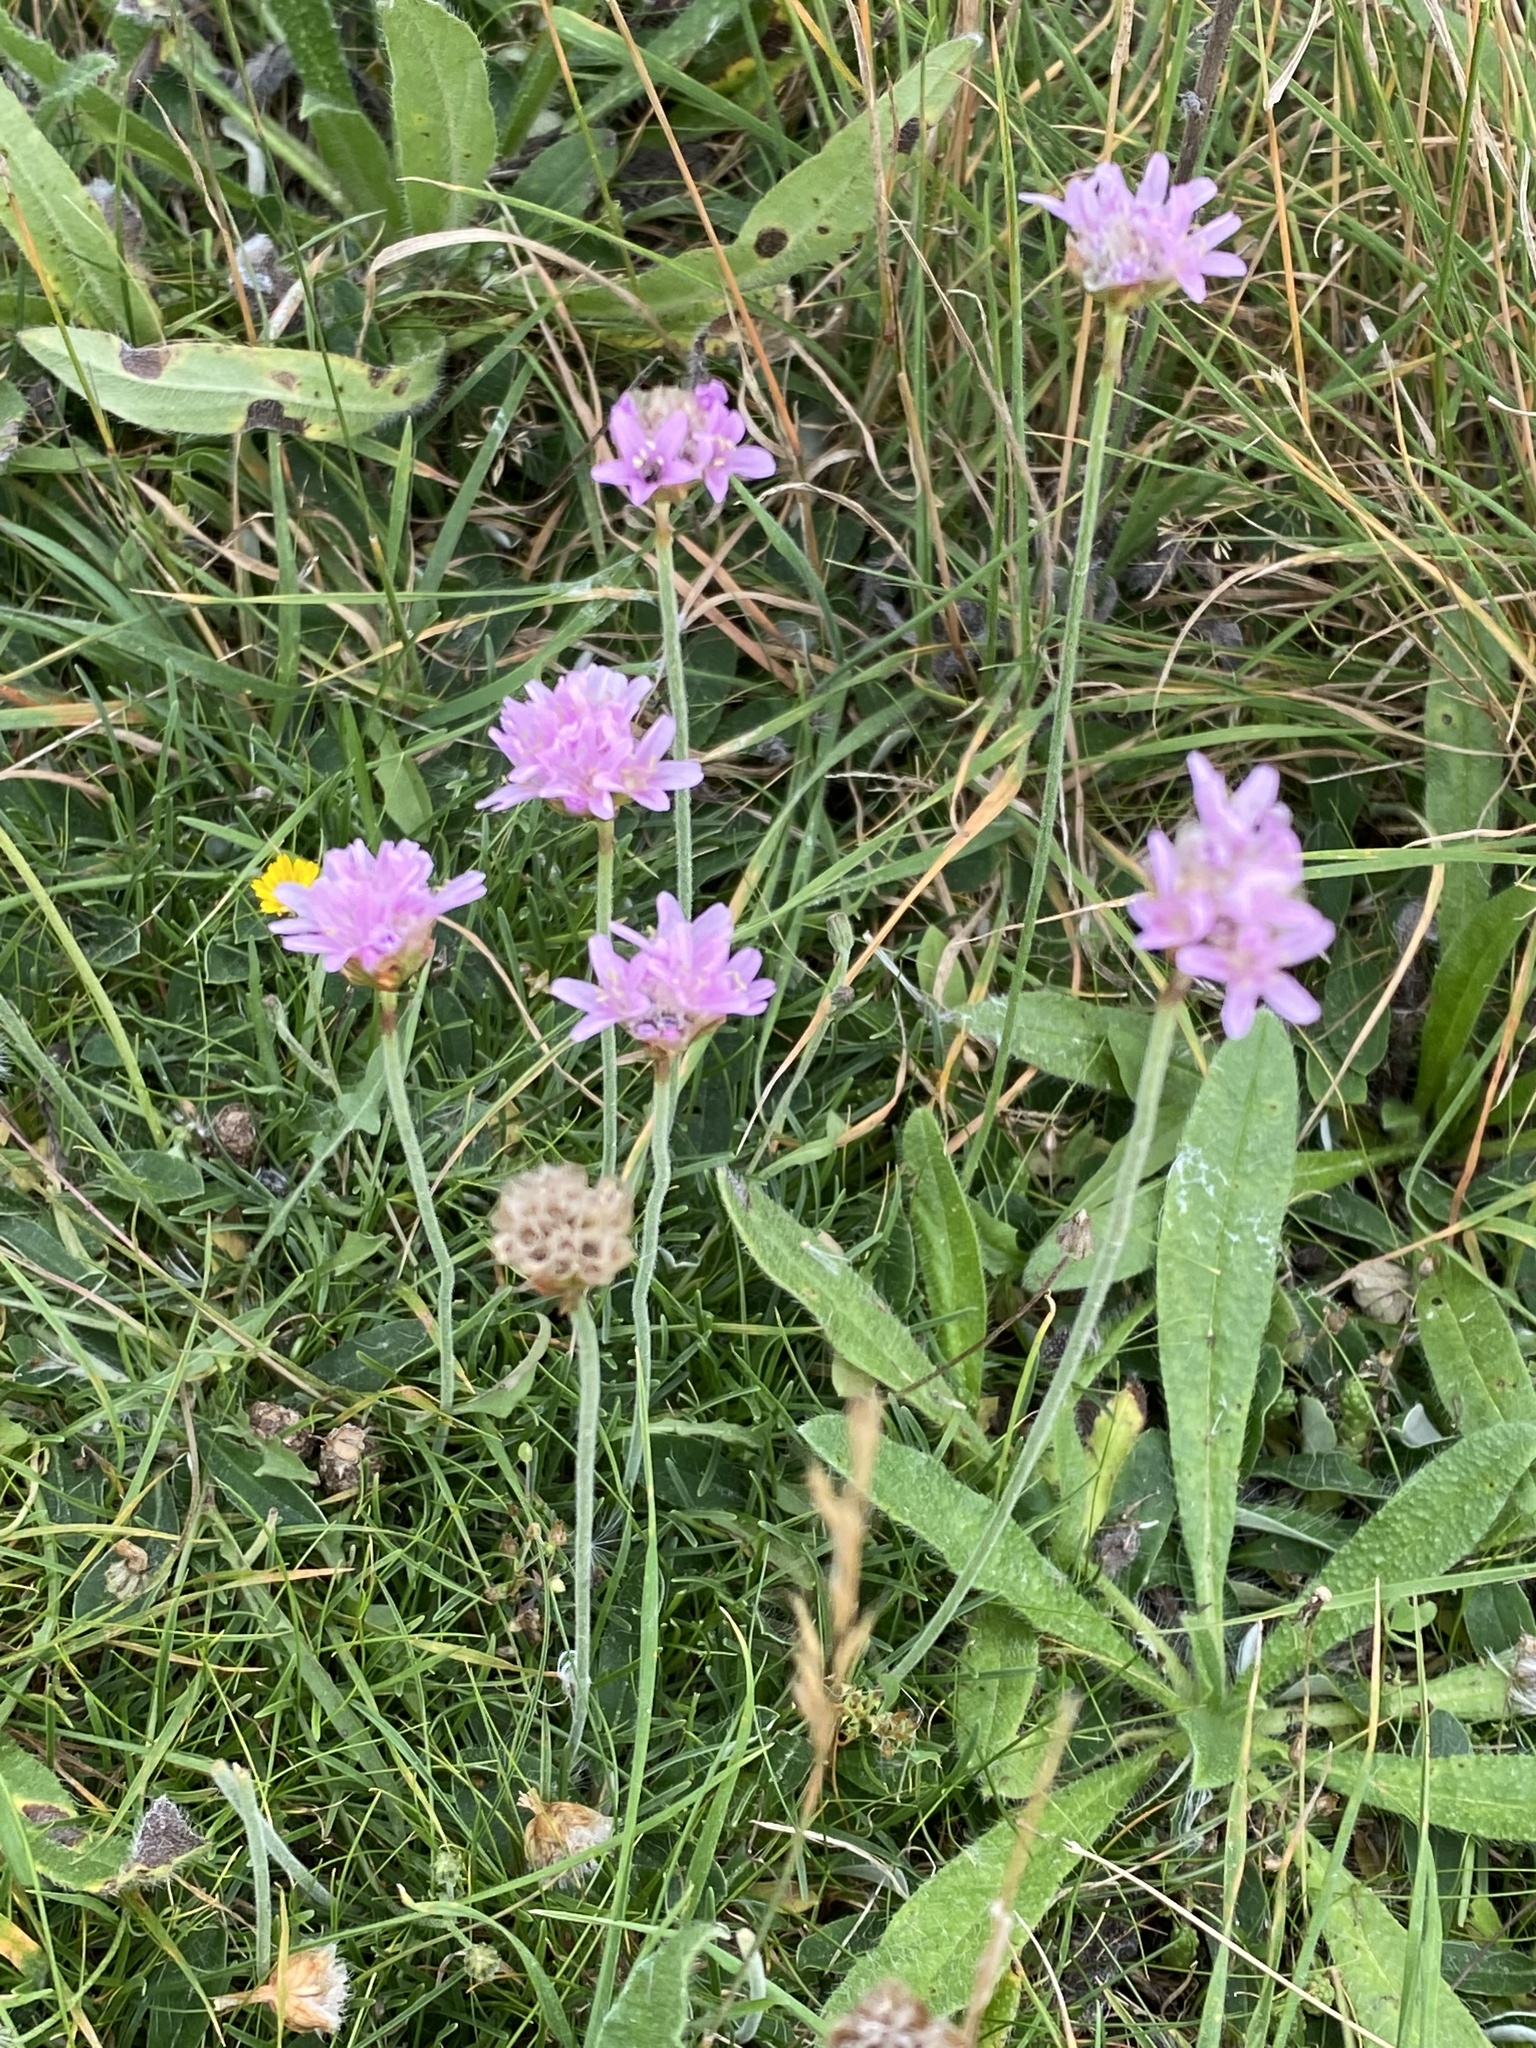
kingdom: Plantae
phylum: Tracheophyta
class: Magnoliopsida
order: Caryophyllales
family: Plumbaginaceae
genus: Armeria
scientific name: Armeria maritima
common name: Thrift
